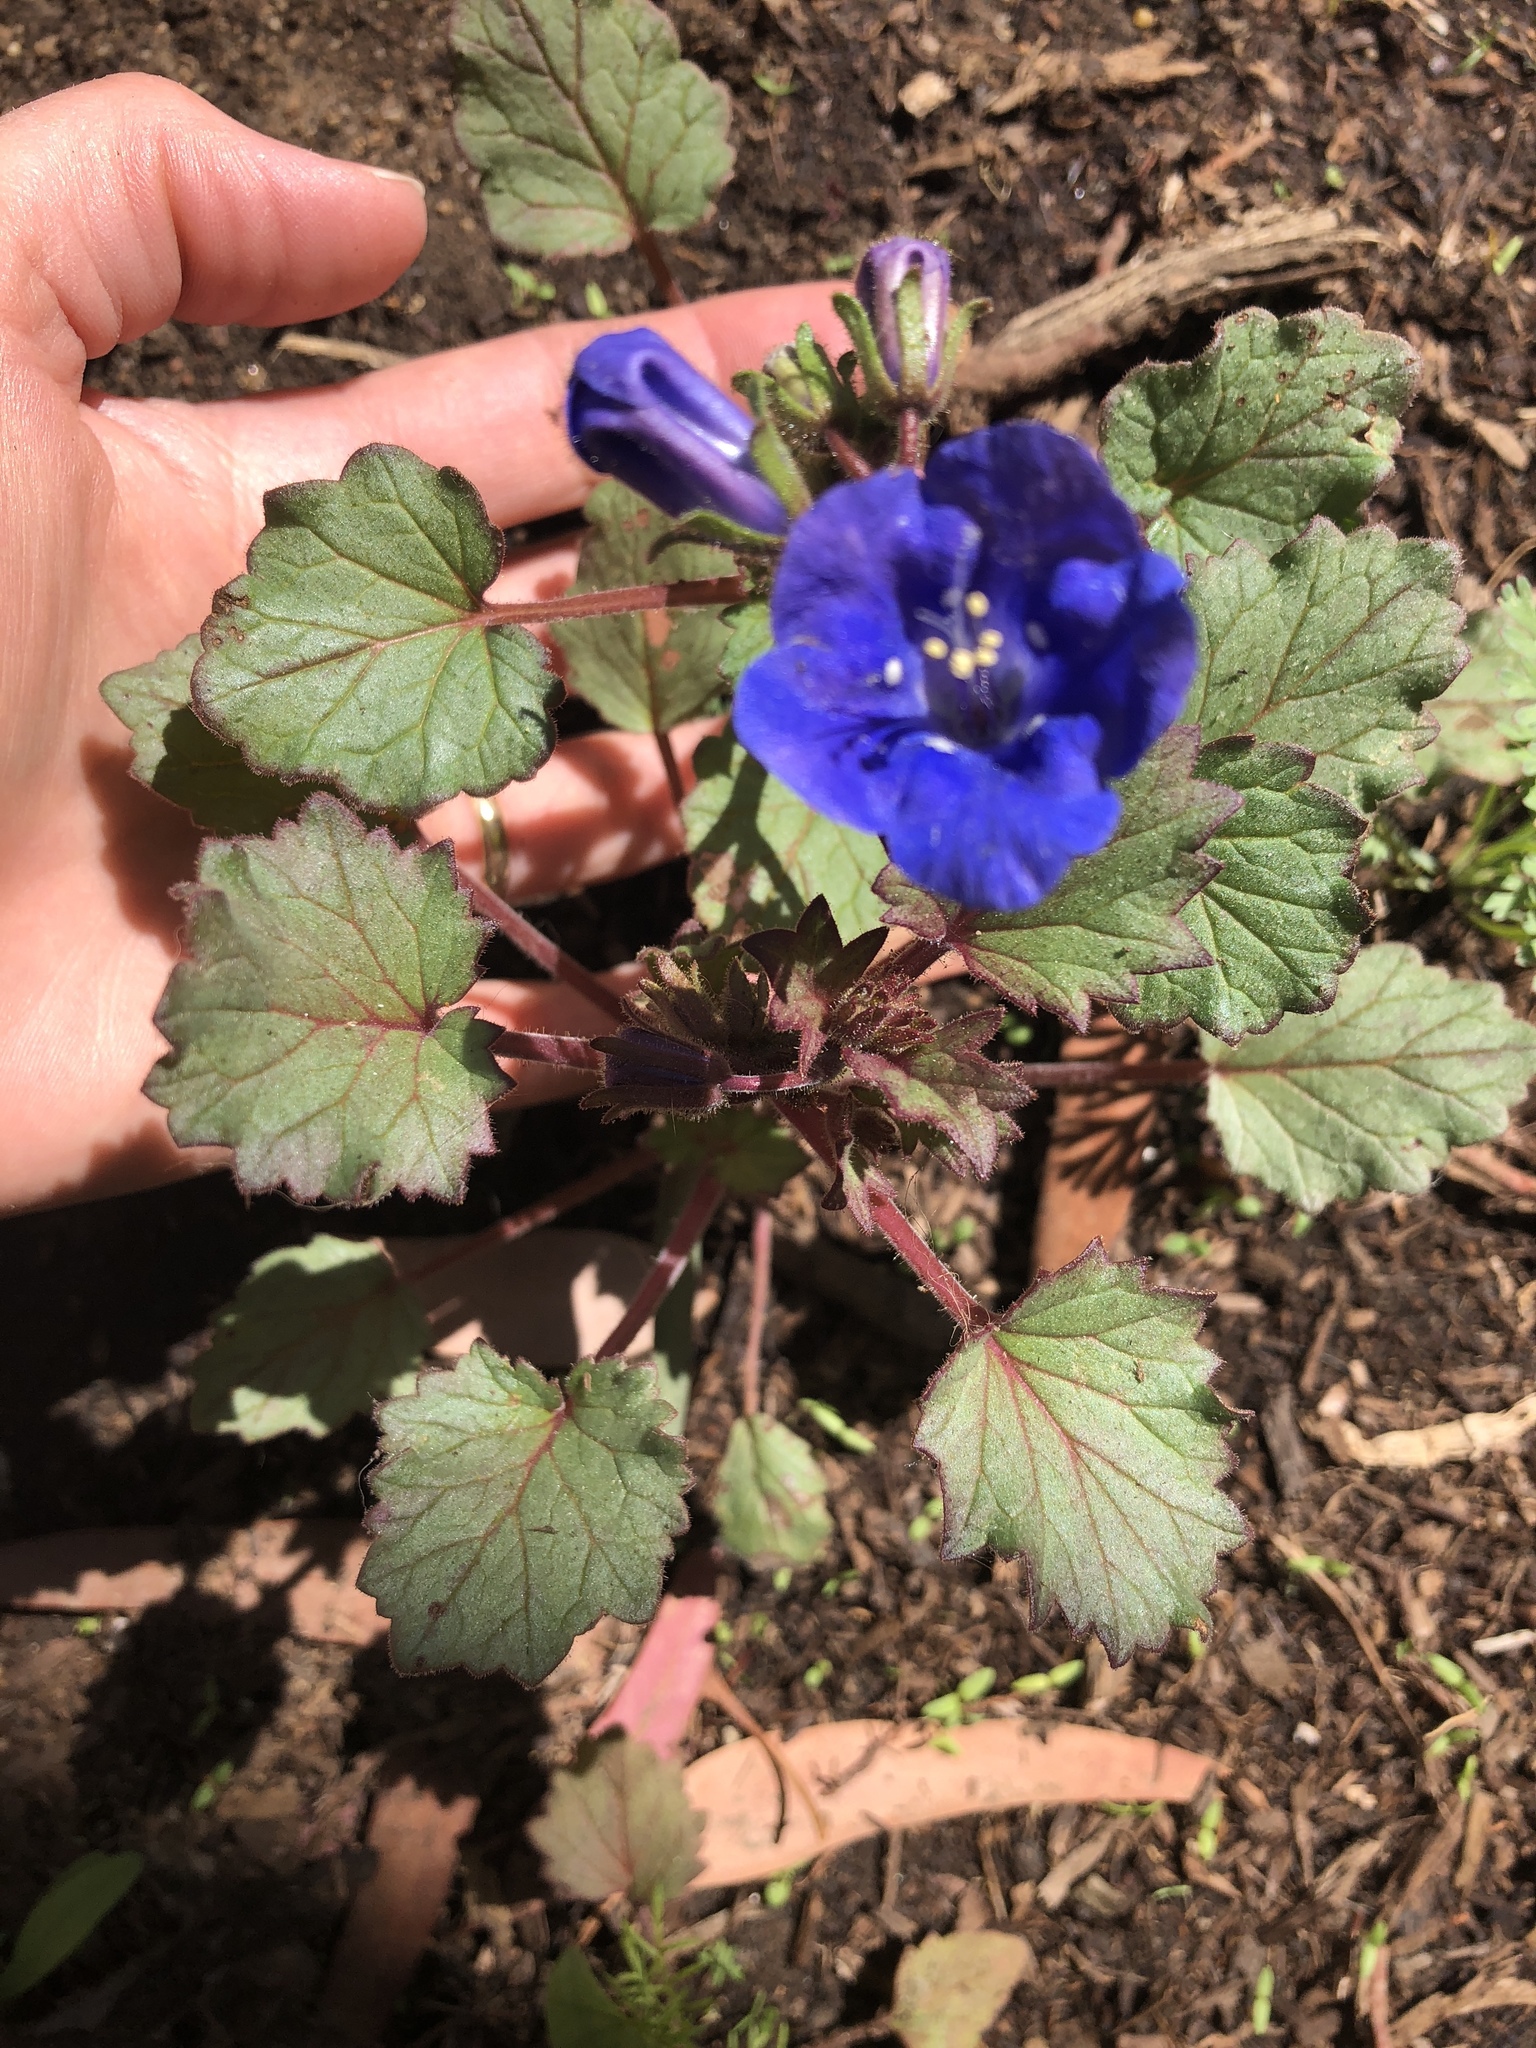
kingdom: Plantae
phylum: Tracheophyta
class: Magnoliopsida
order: Boraginales
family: Hydrophyllaceae
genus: Phacelia
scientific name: Phacelia campanularia
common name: California bluebell
